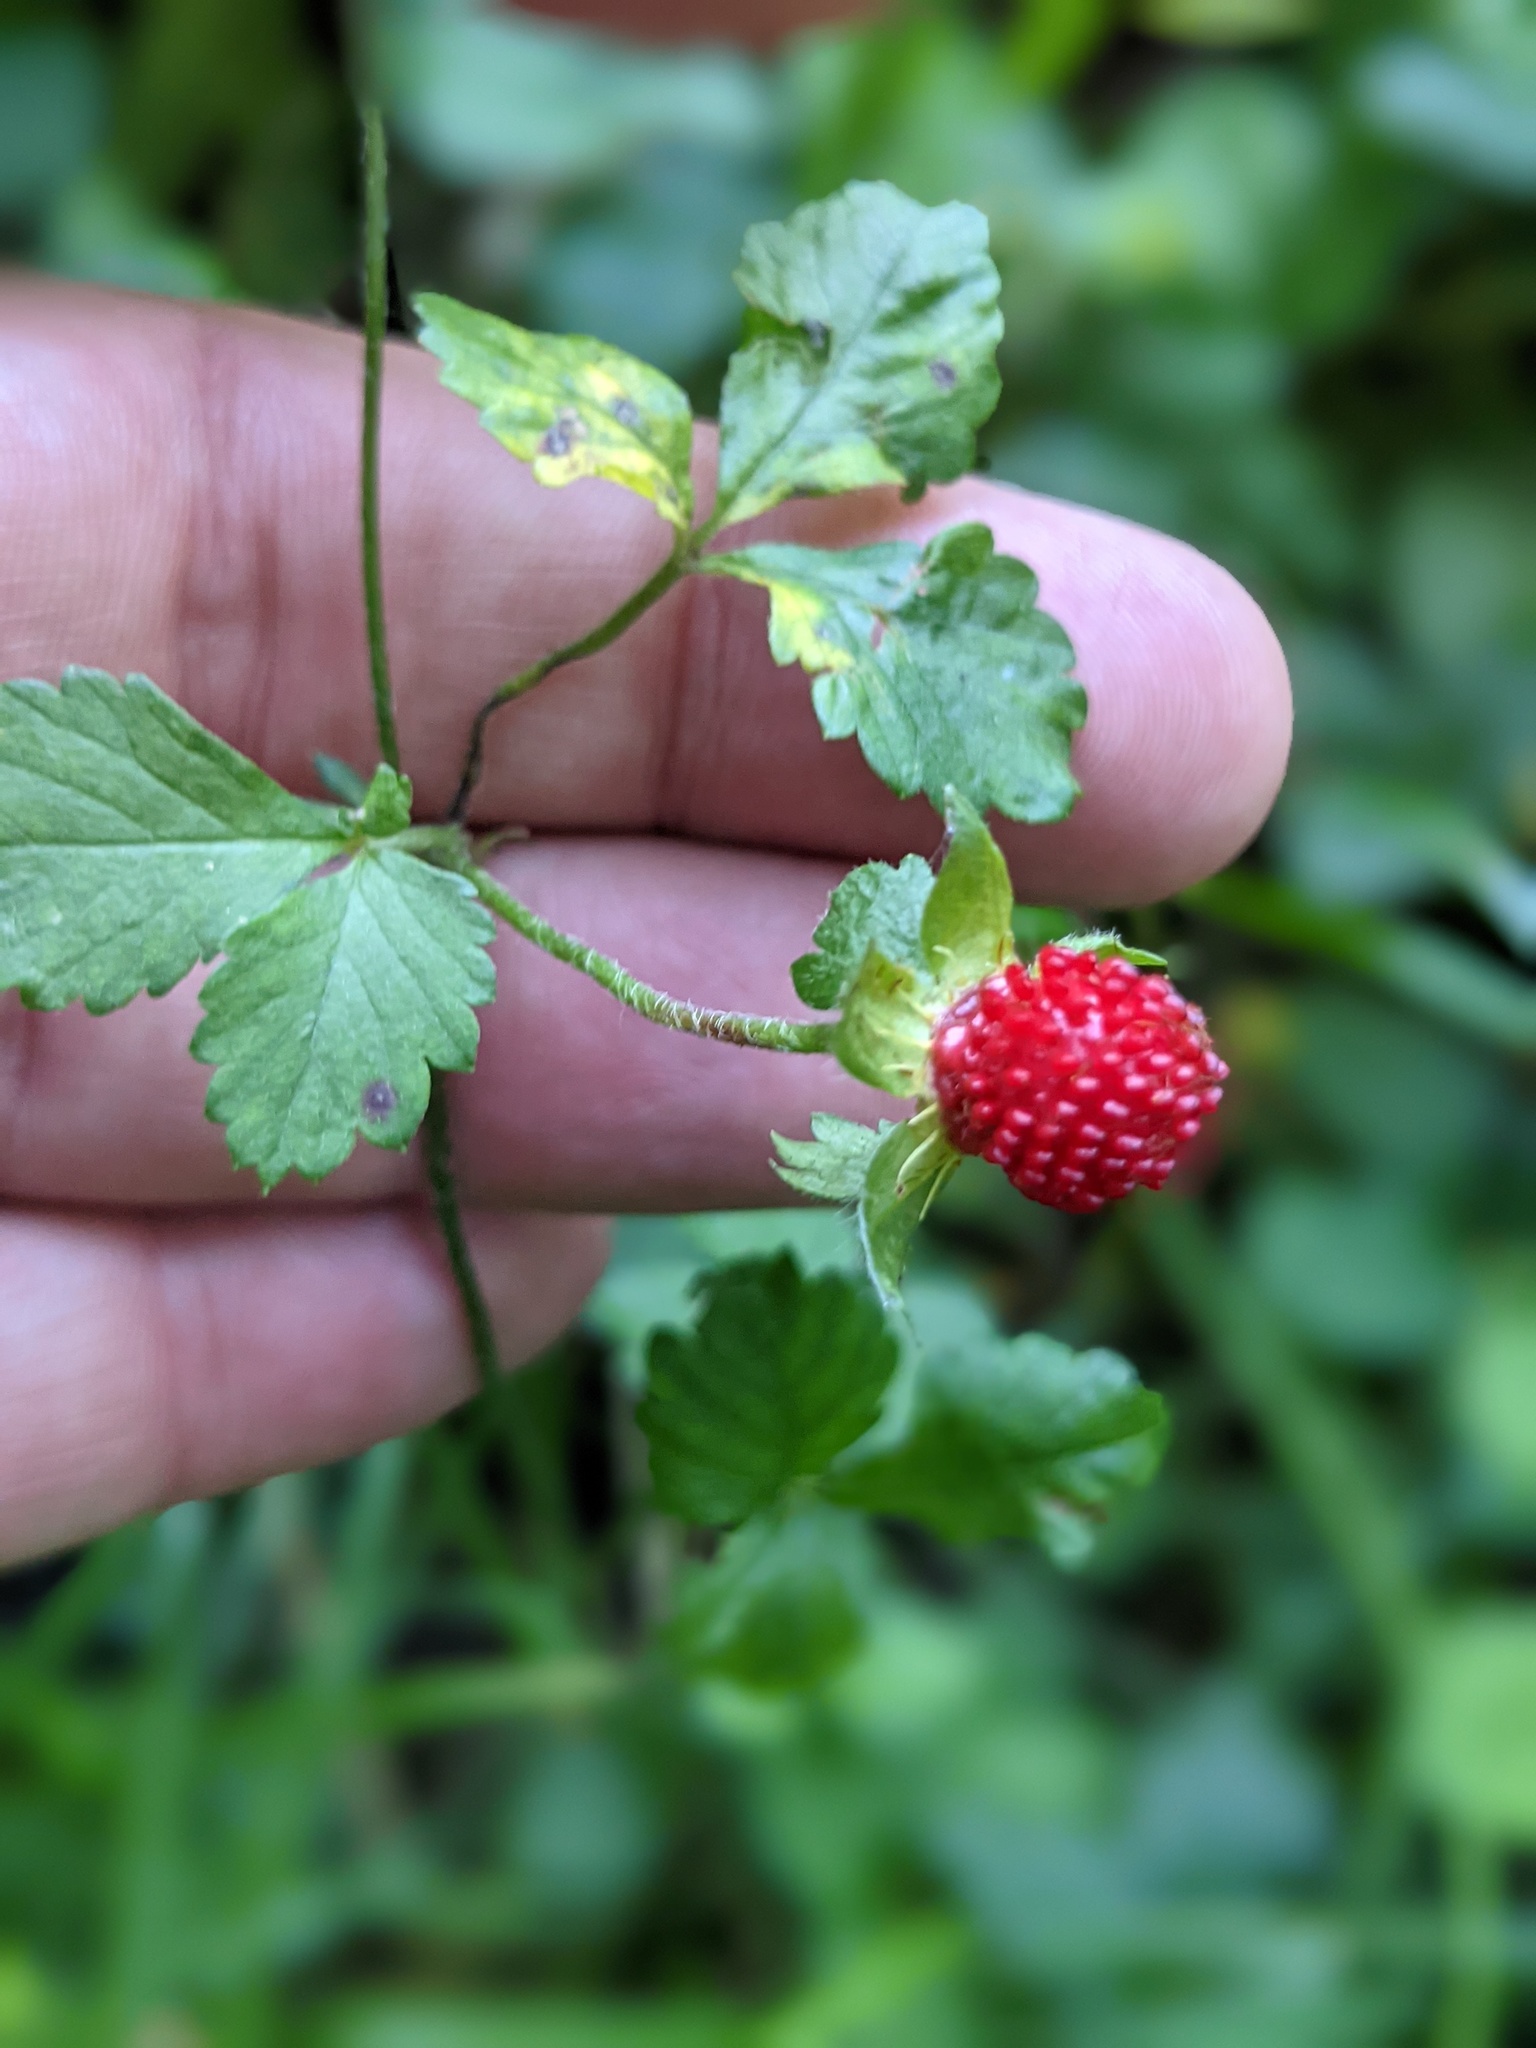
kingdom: Plantae
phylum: Tracheophyta
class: Magnoliopsida
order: Rosales
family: Rosaceae
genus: Potentilla
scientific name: Potentilla indica
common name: Yellow-flowered strawberry
